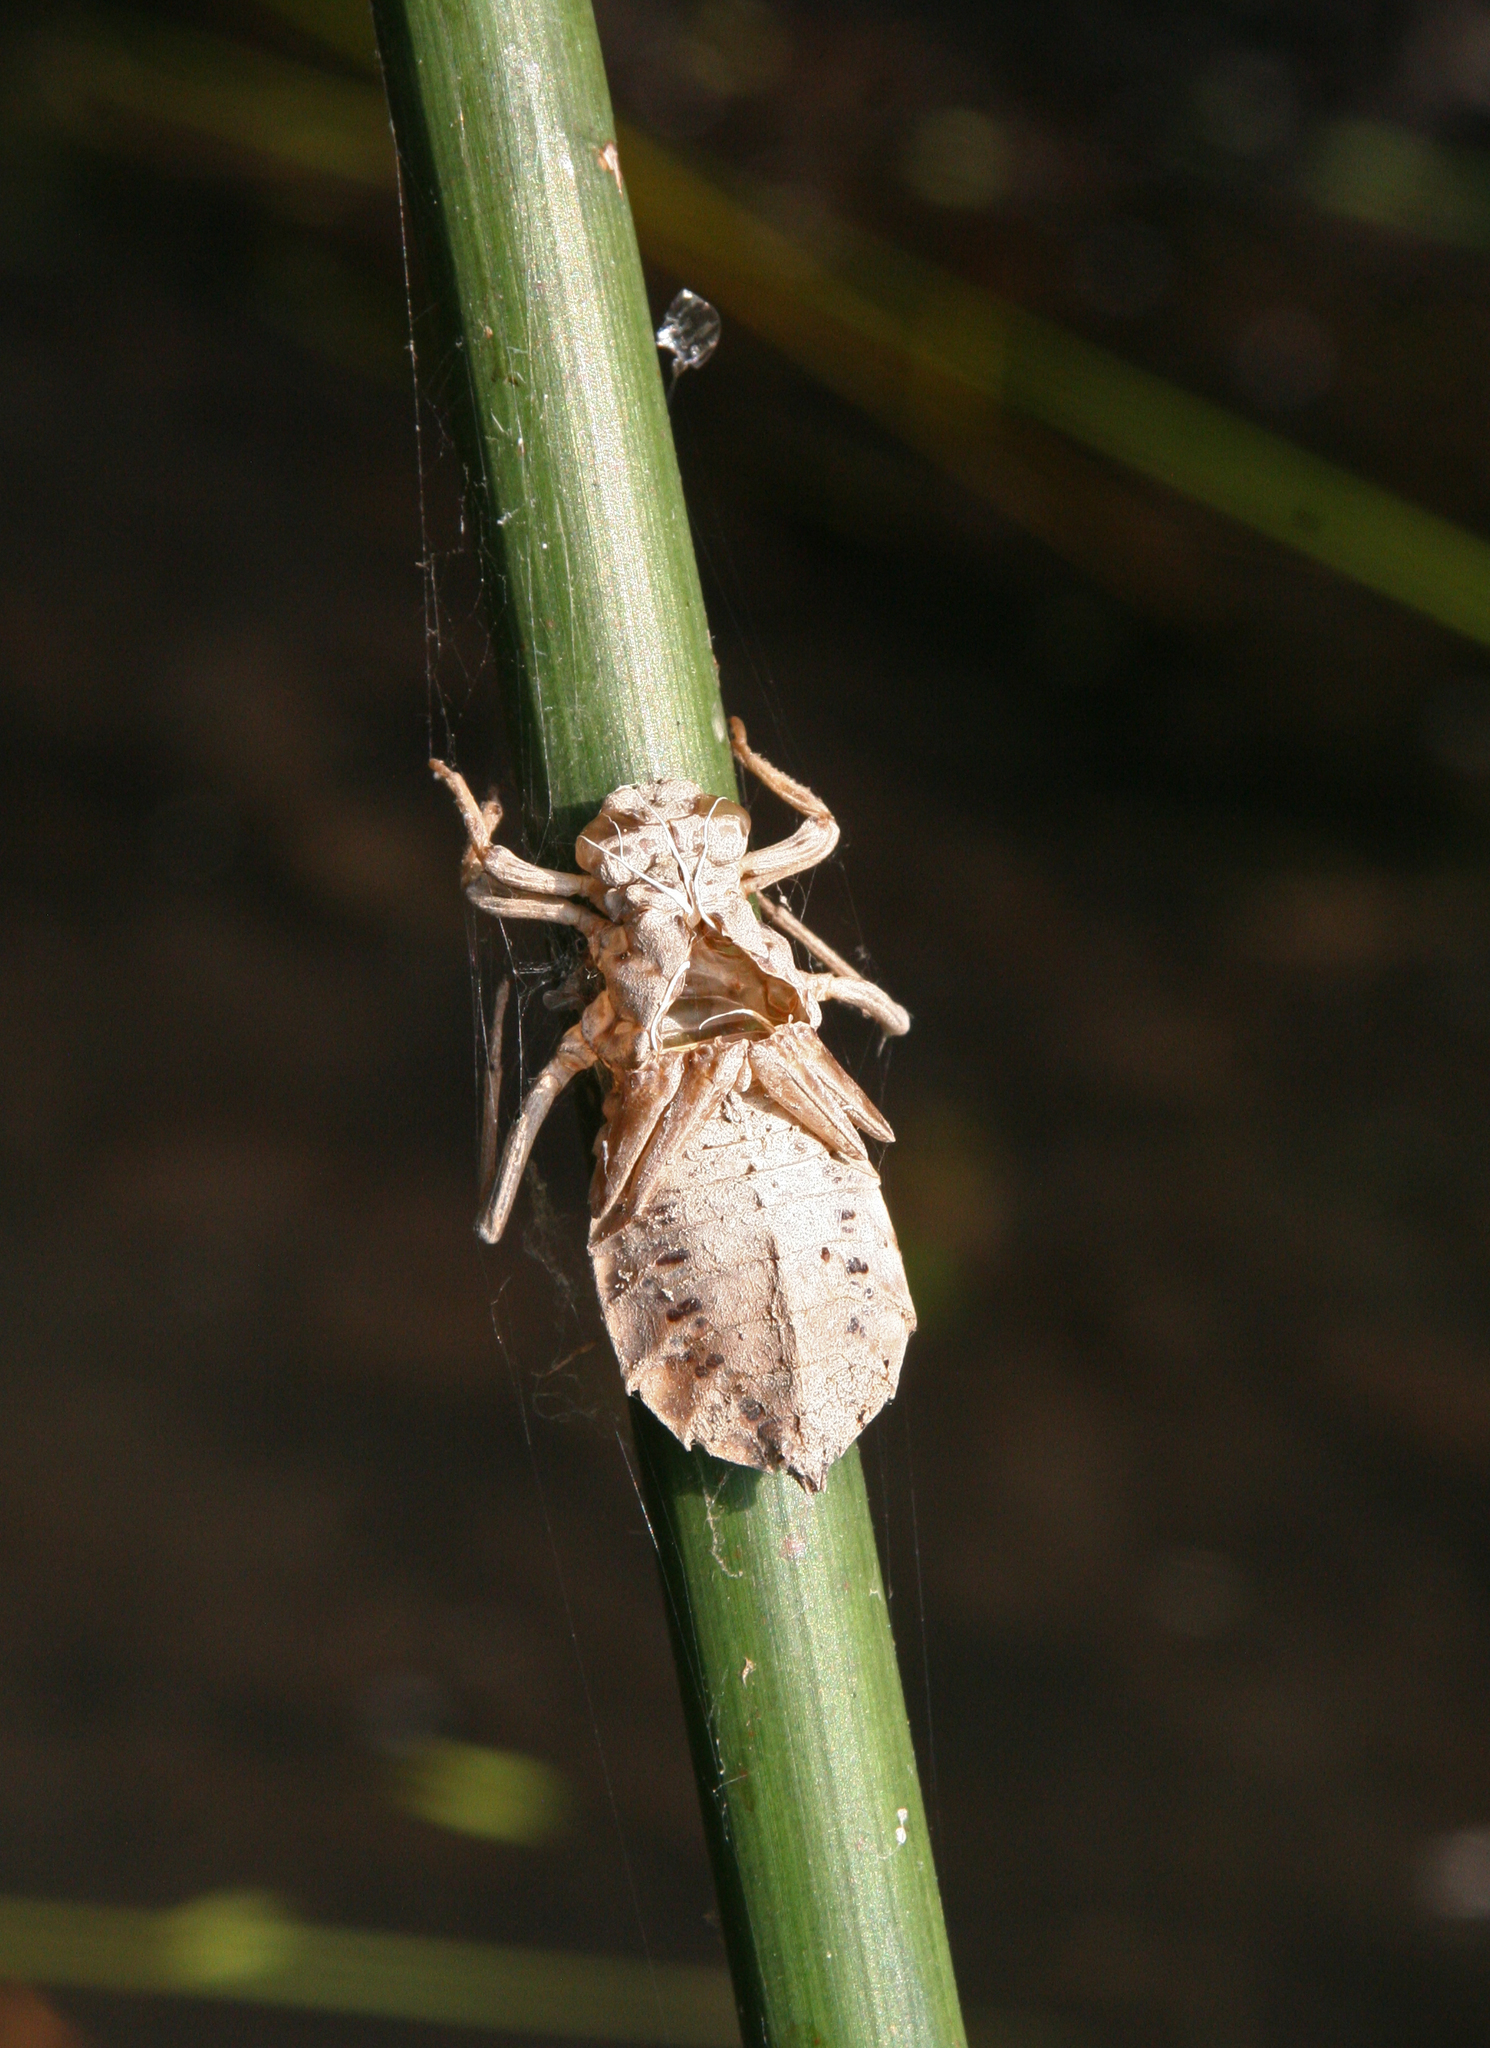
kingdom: Animalia
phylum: Arthropoda
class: Insecta
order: Odonata
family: Gomphidae
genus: Lindenia
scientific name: Lindenia tetraphylla
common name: Bladetail
